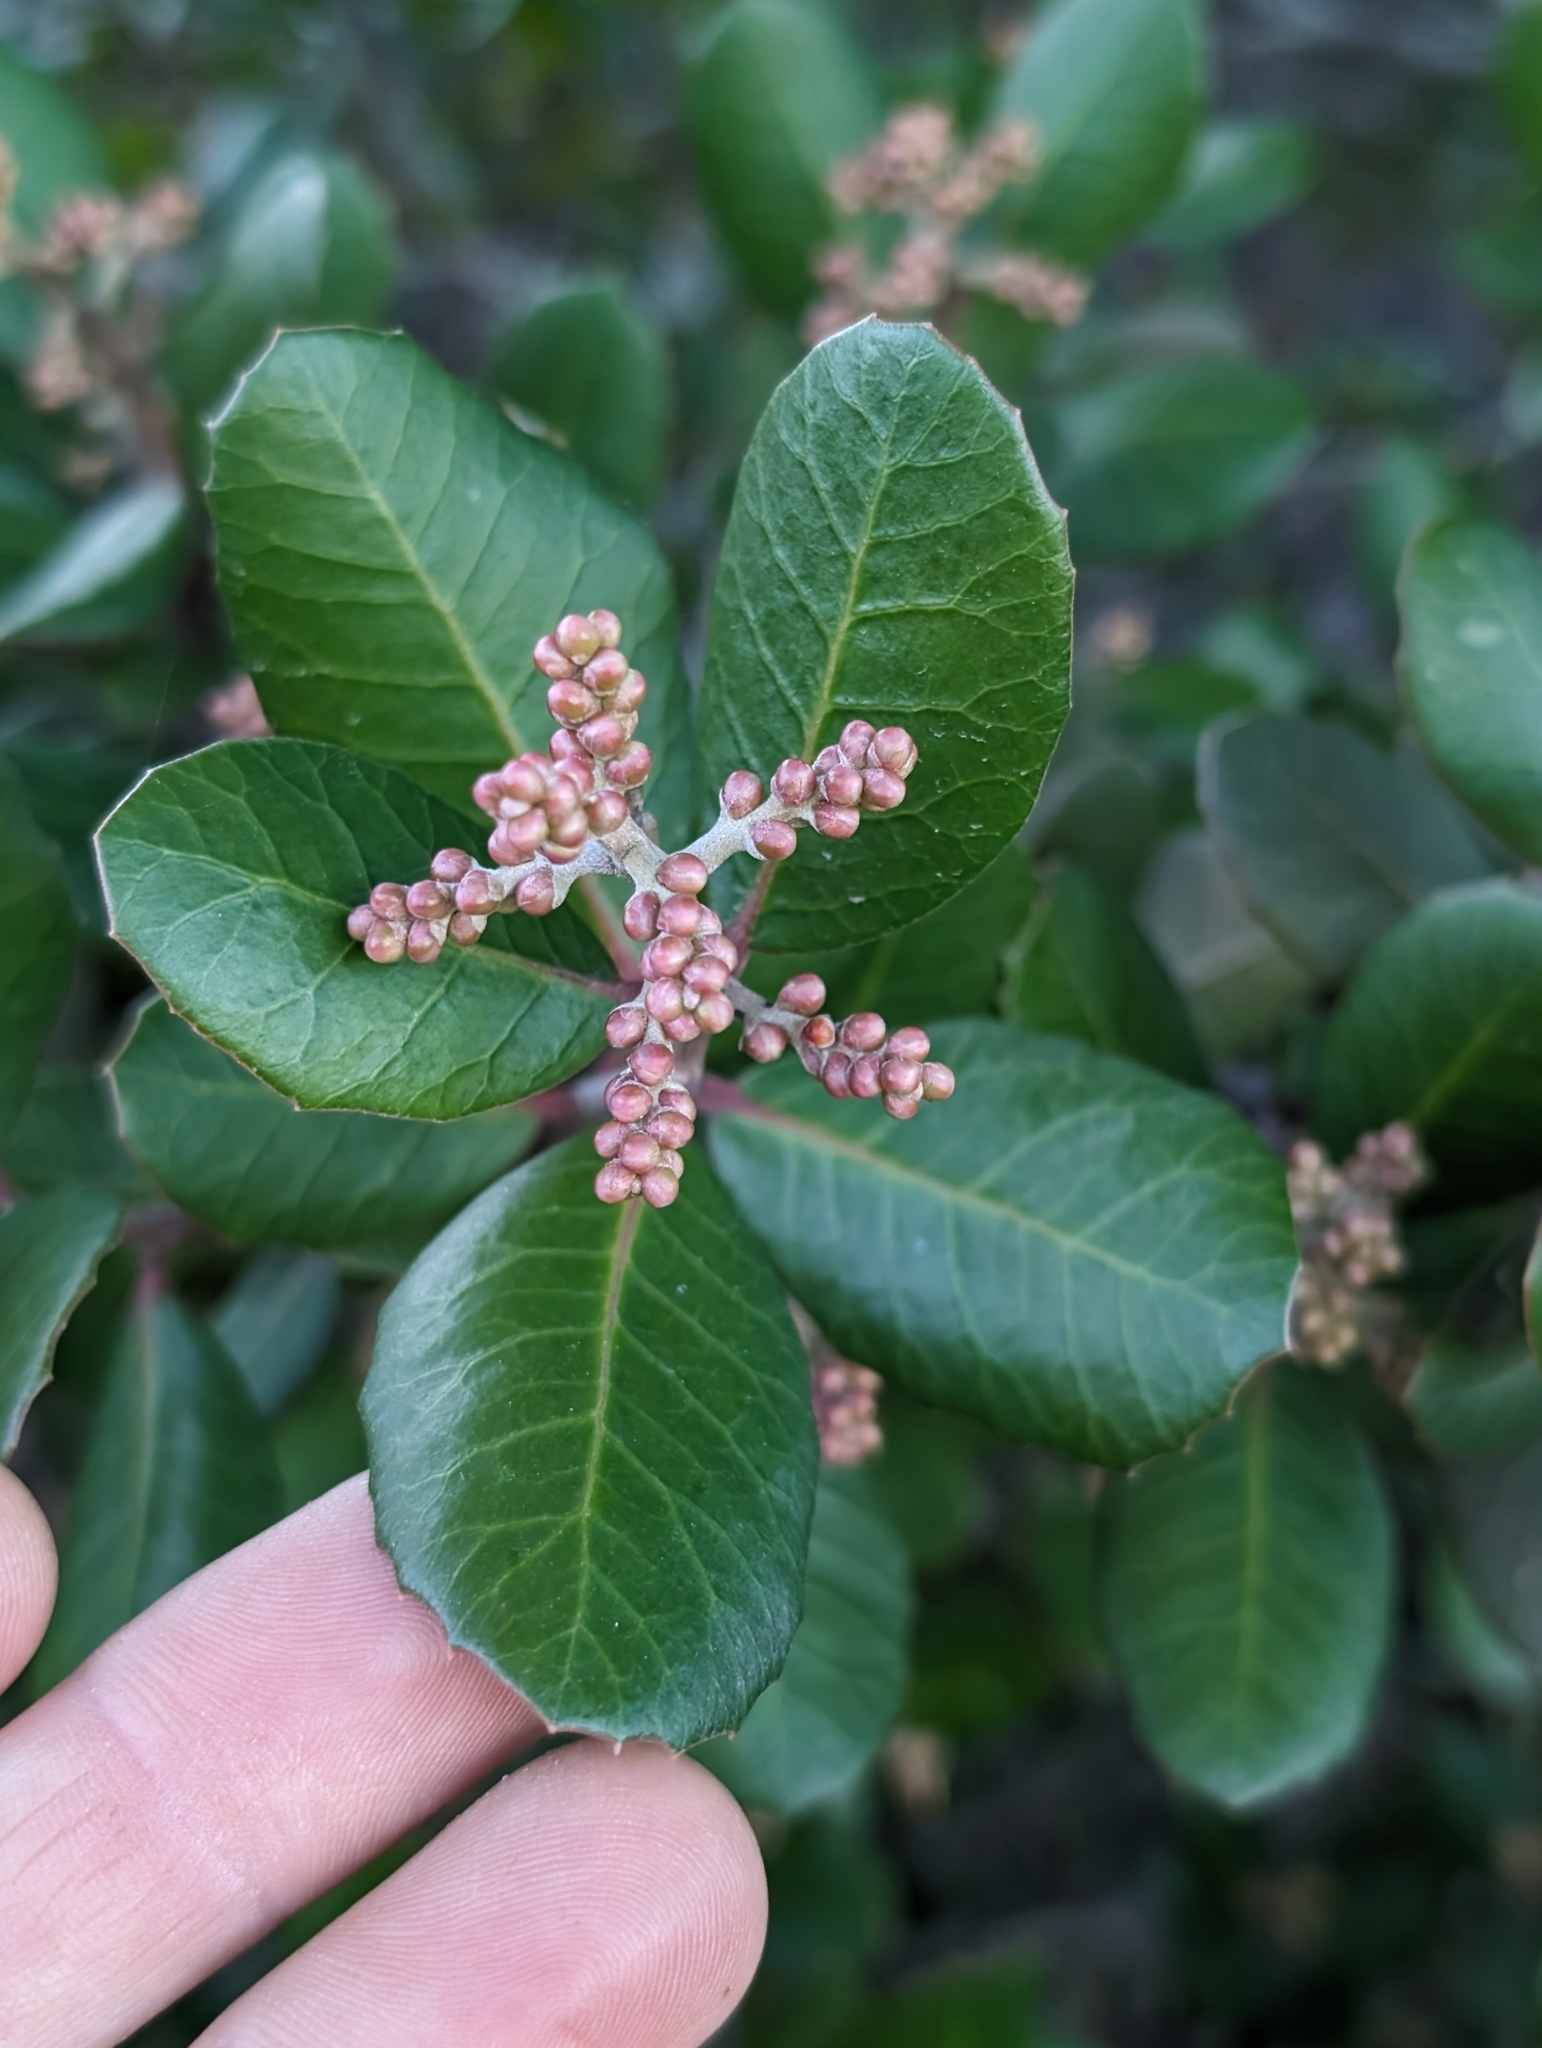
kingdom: Plantae
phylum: Tracheophyta
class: Magnoliopsida
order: Sapindales
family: Anacardiaceae
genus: Rhus
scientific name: Rhus integrifolia
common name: Lemonade sumac
